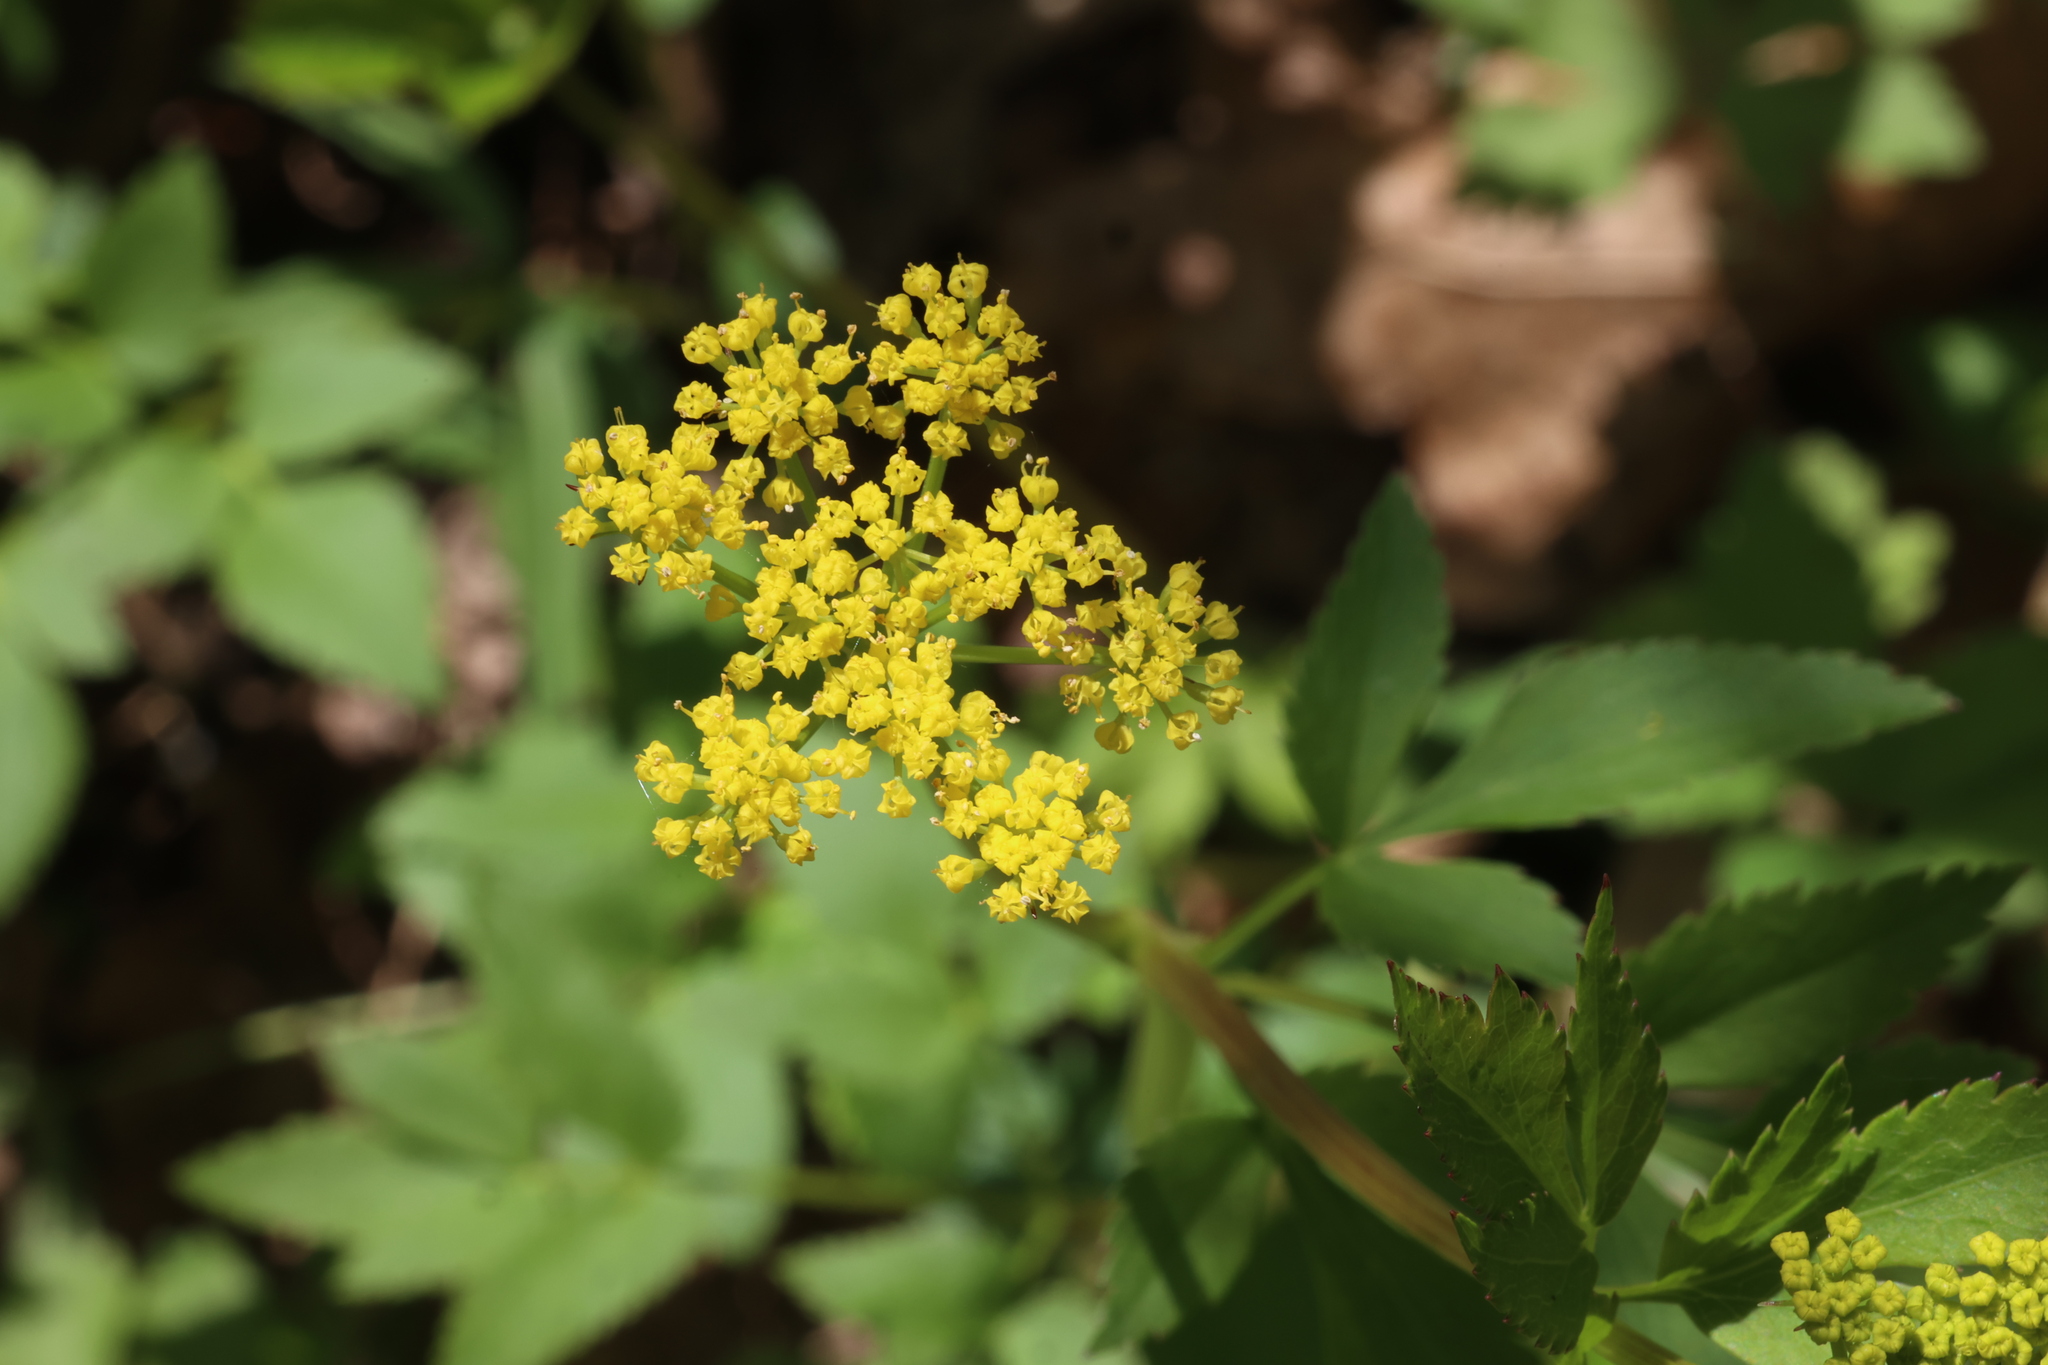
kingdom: Plantae
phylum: Tracheophyta
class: Magnoliopsida
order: Apiales
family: Apiaceae
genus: Zizia
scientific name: Zizia aurea
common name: Golden alexanders
